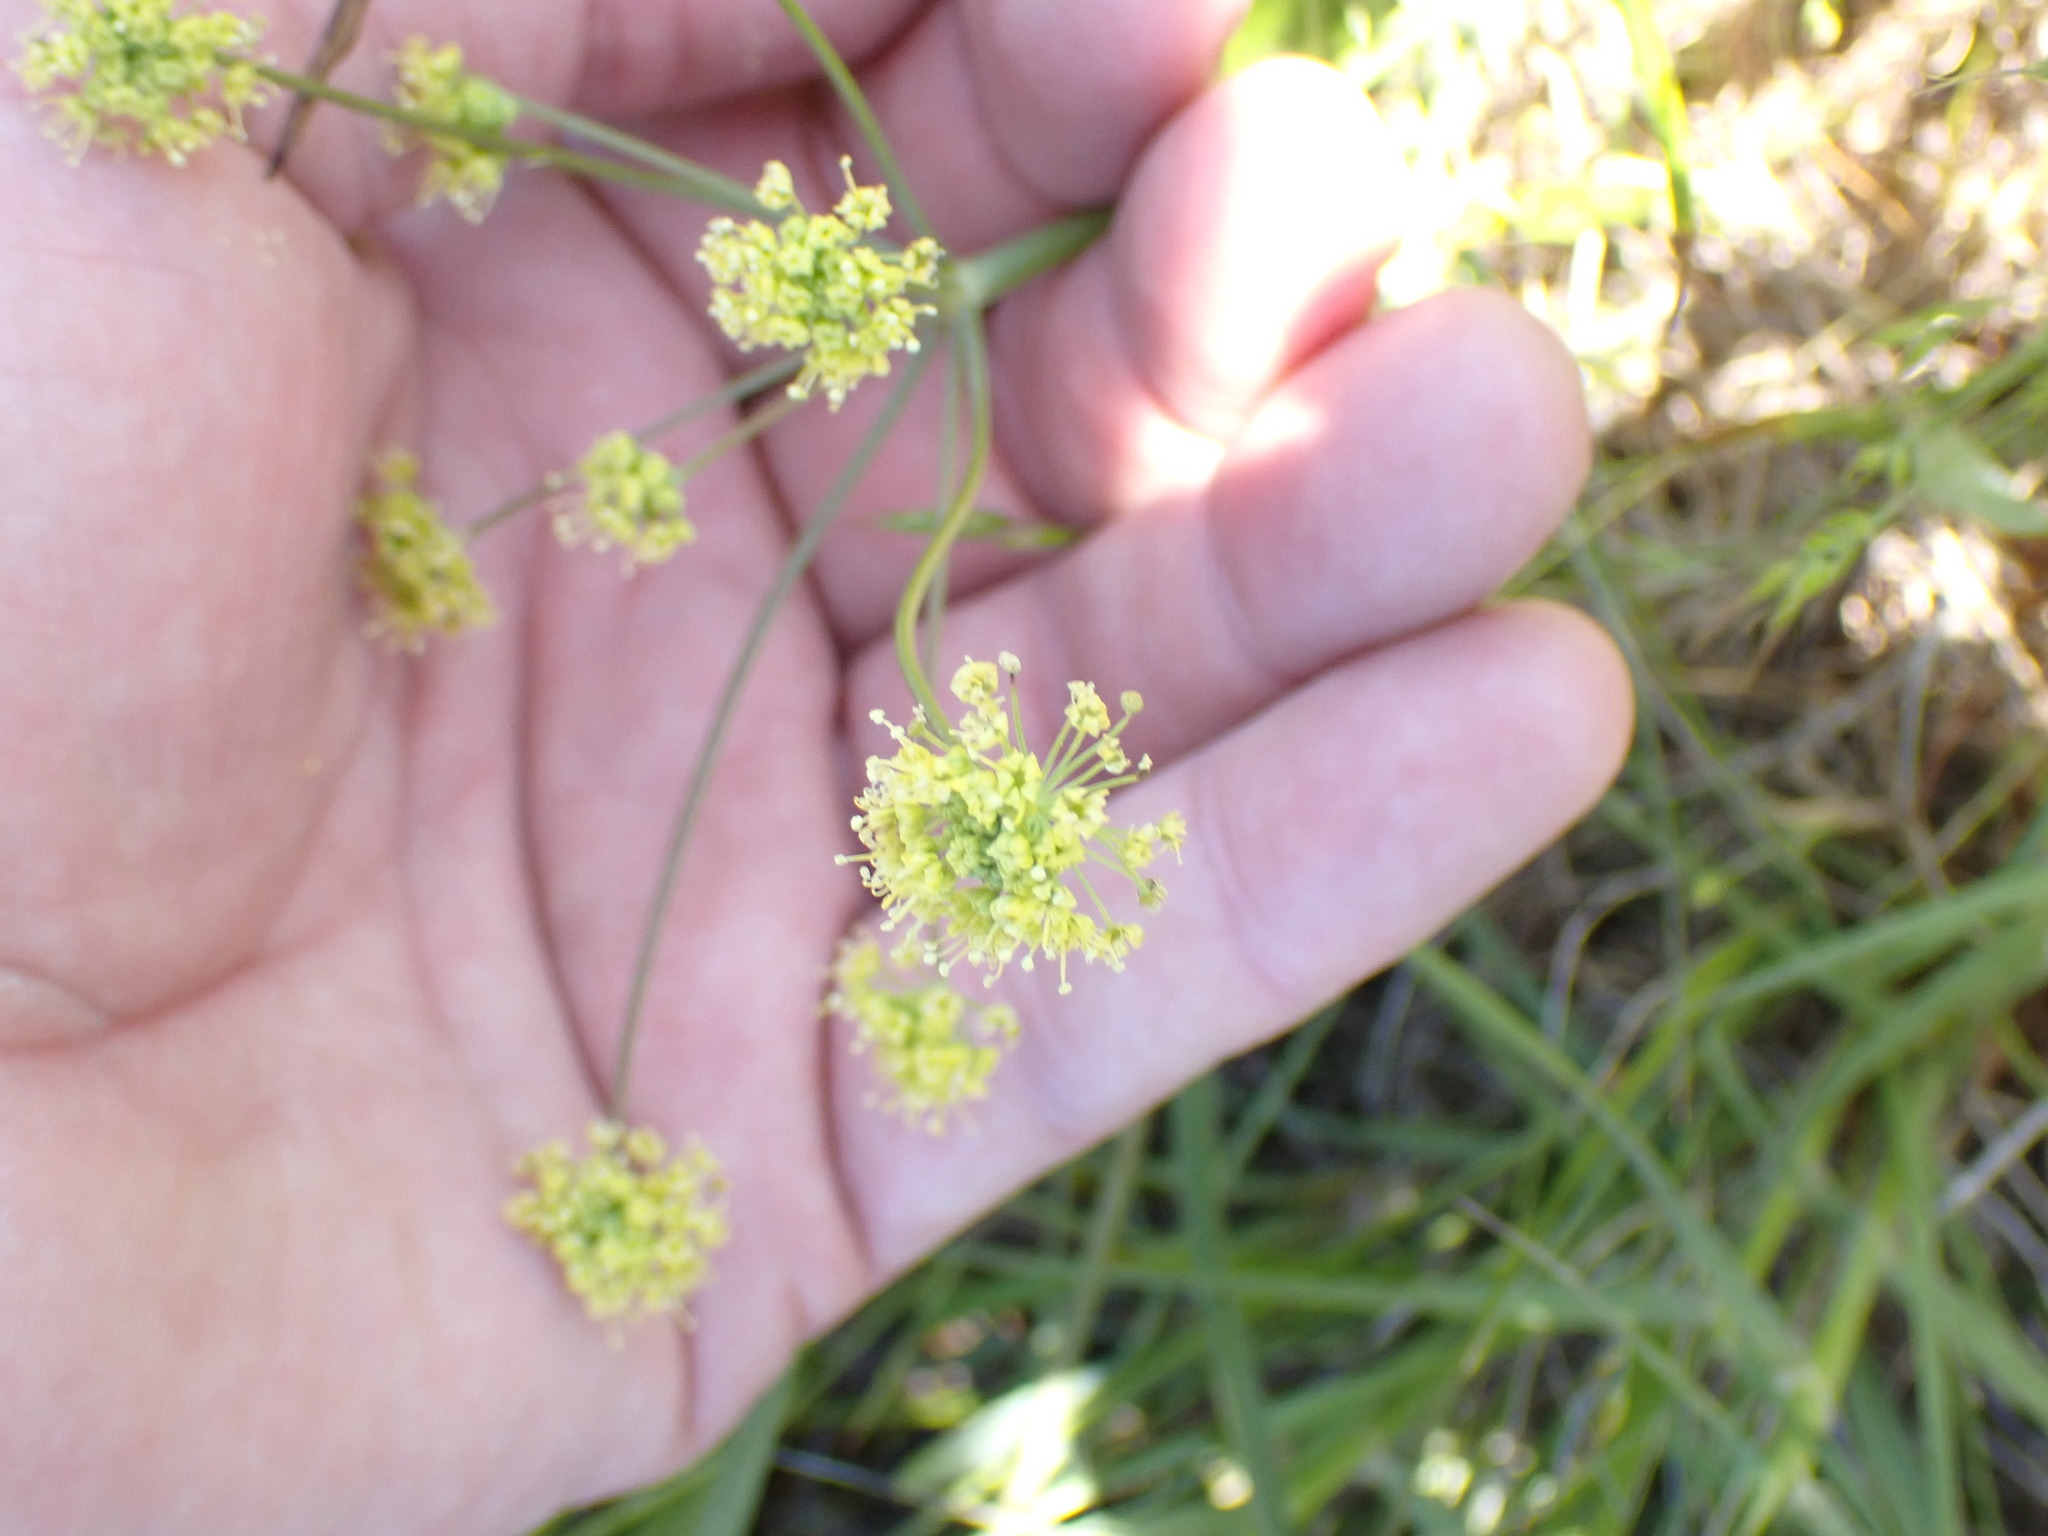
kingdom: Plantae
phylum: Tracheophyta
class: Magnoliopsida
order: Apiales
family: Apiaceae
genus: Lomatium
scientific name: Lomatium nudicaule
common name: Pestle lomatium
